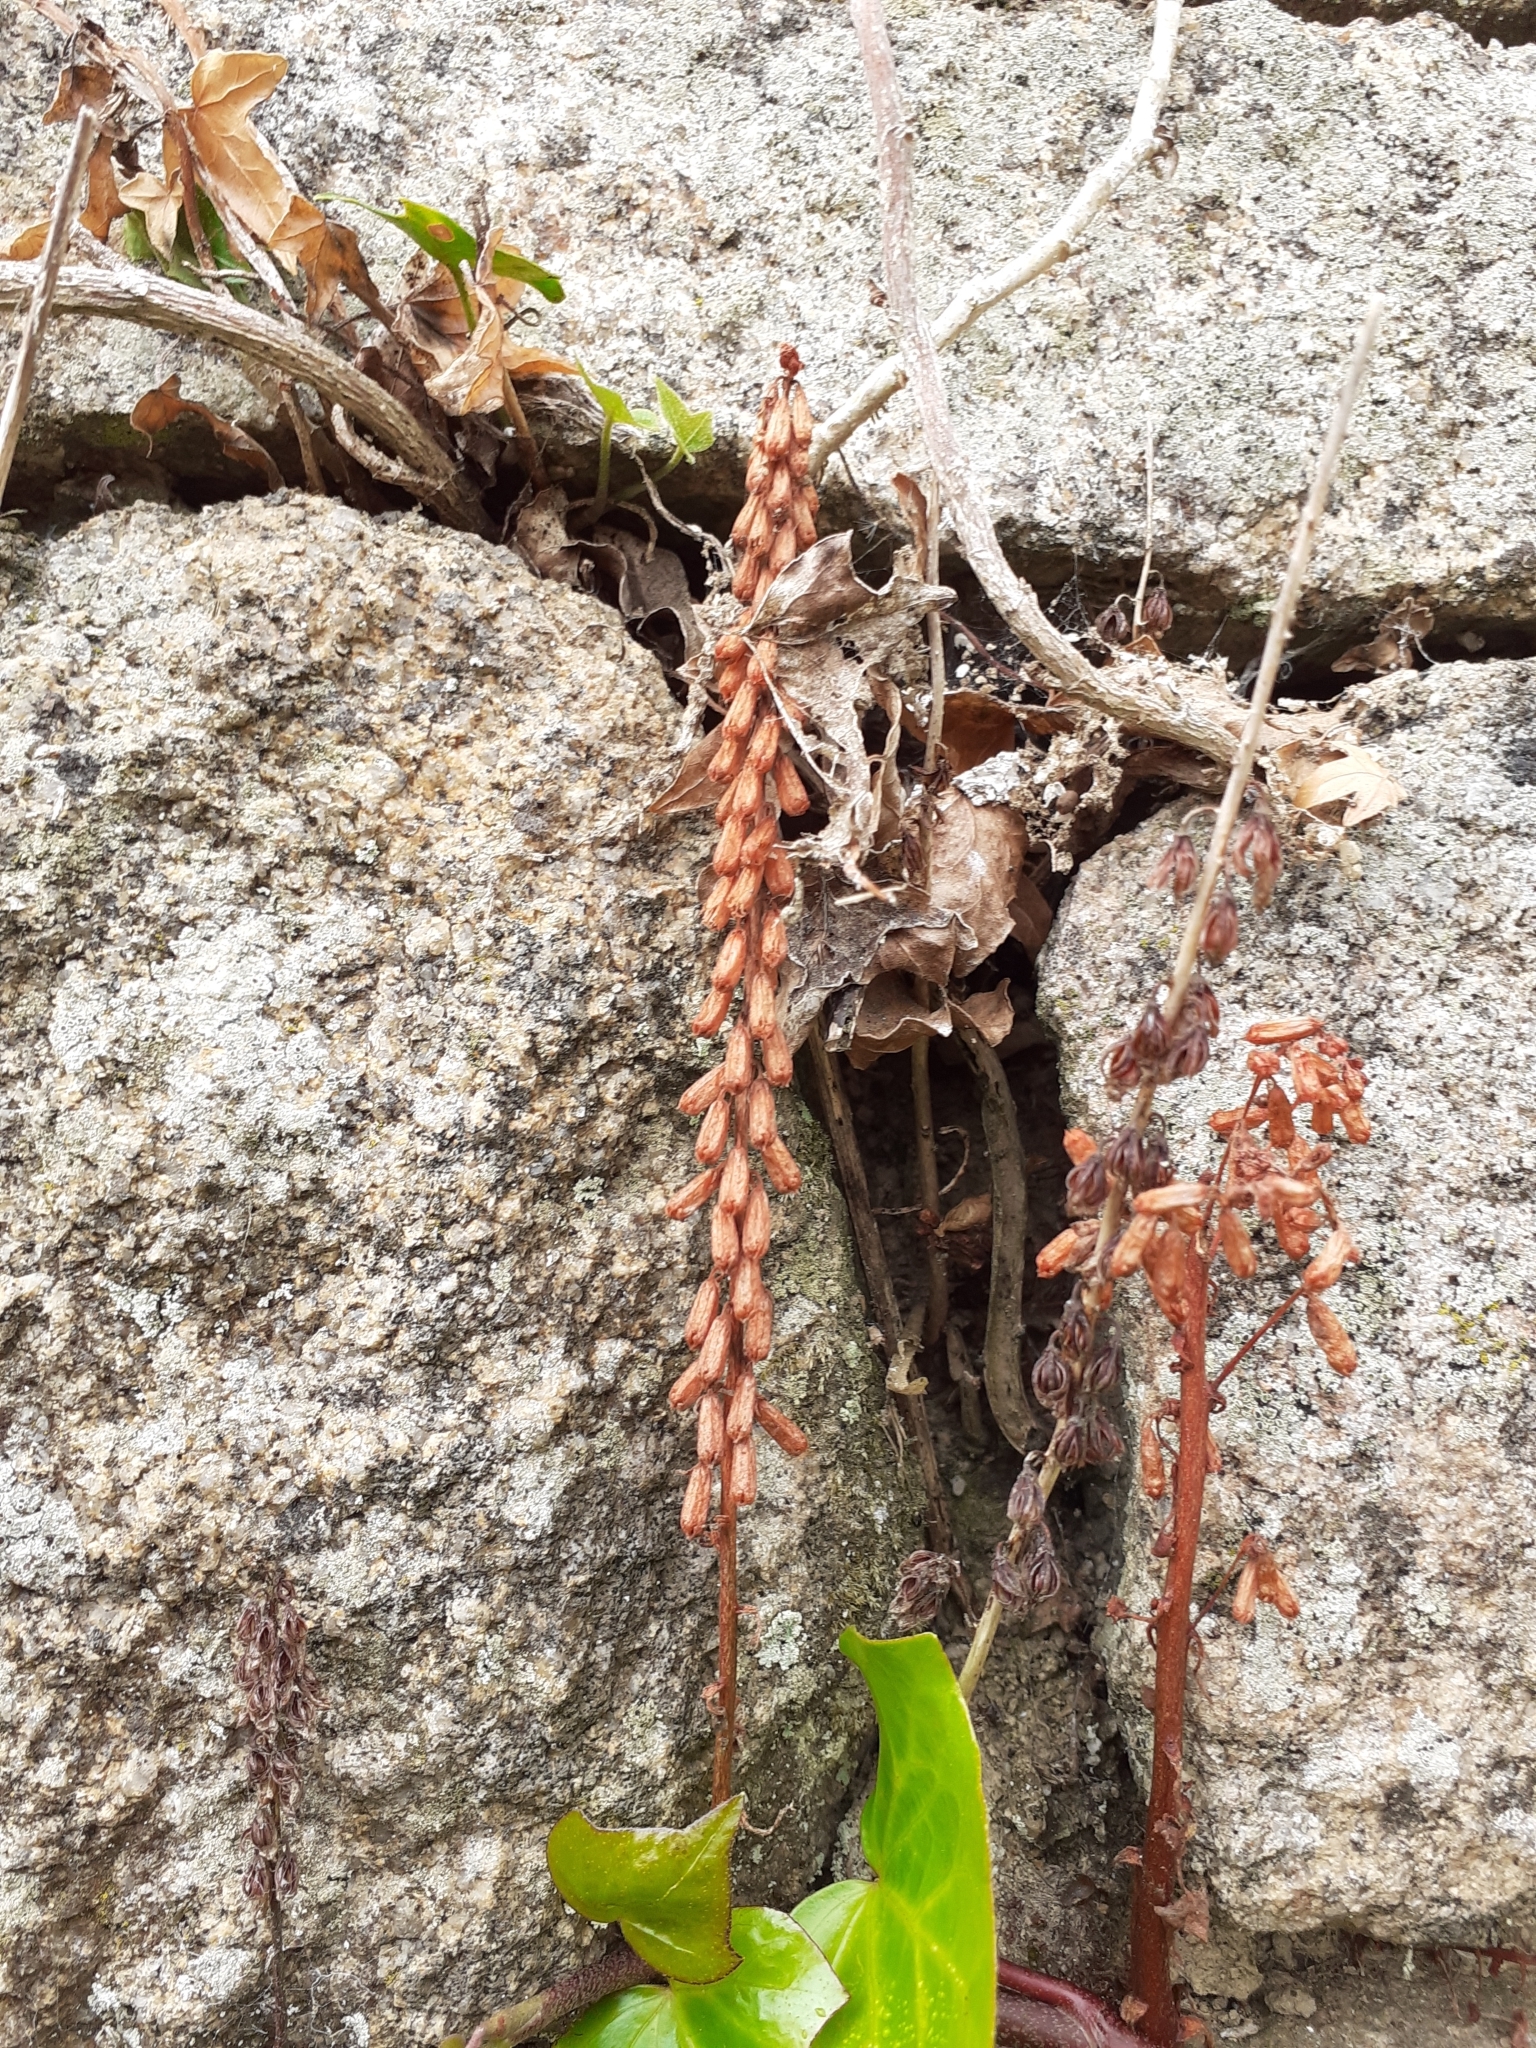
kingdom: Plantae
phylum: Tracheophyta
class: Magnoliopsida
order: Saxifragales
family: Crassulaceae
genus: Umbilicus
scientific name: Umbilicus rupestris
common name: Navelwort
